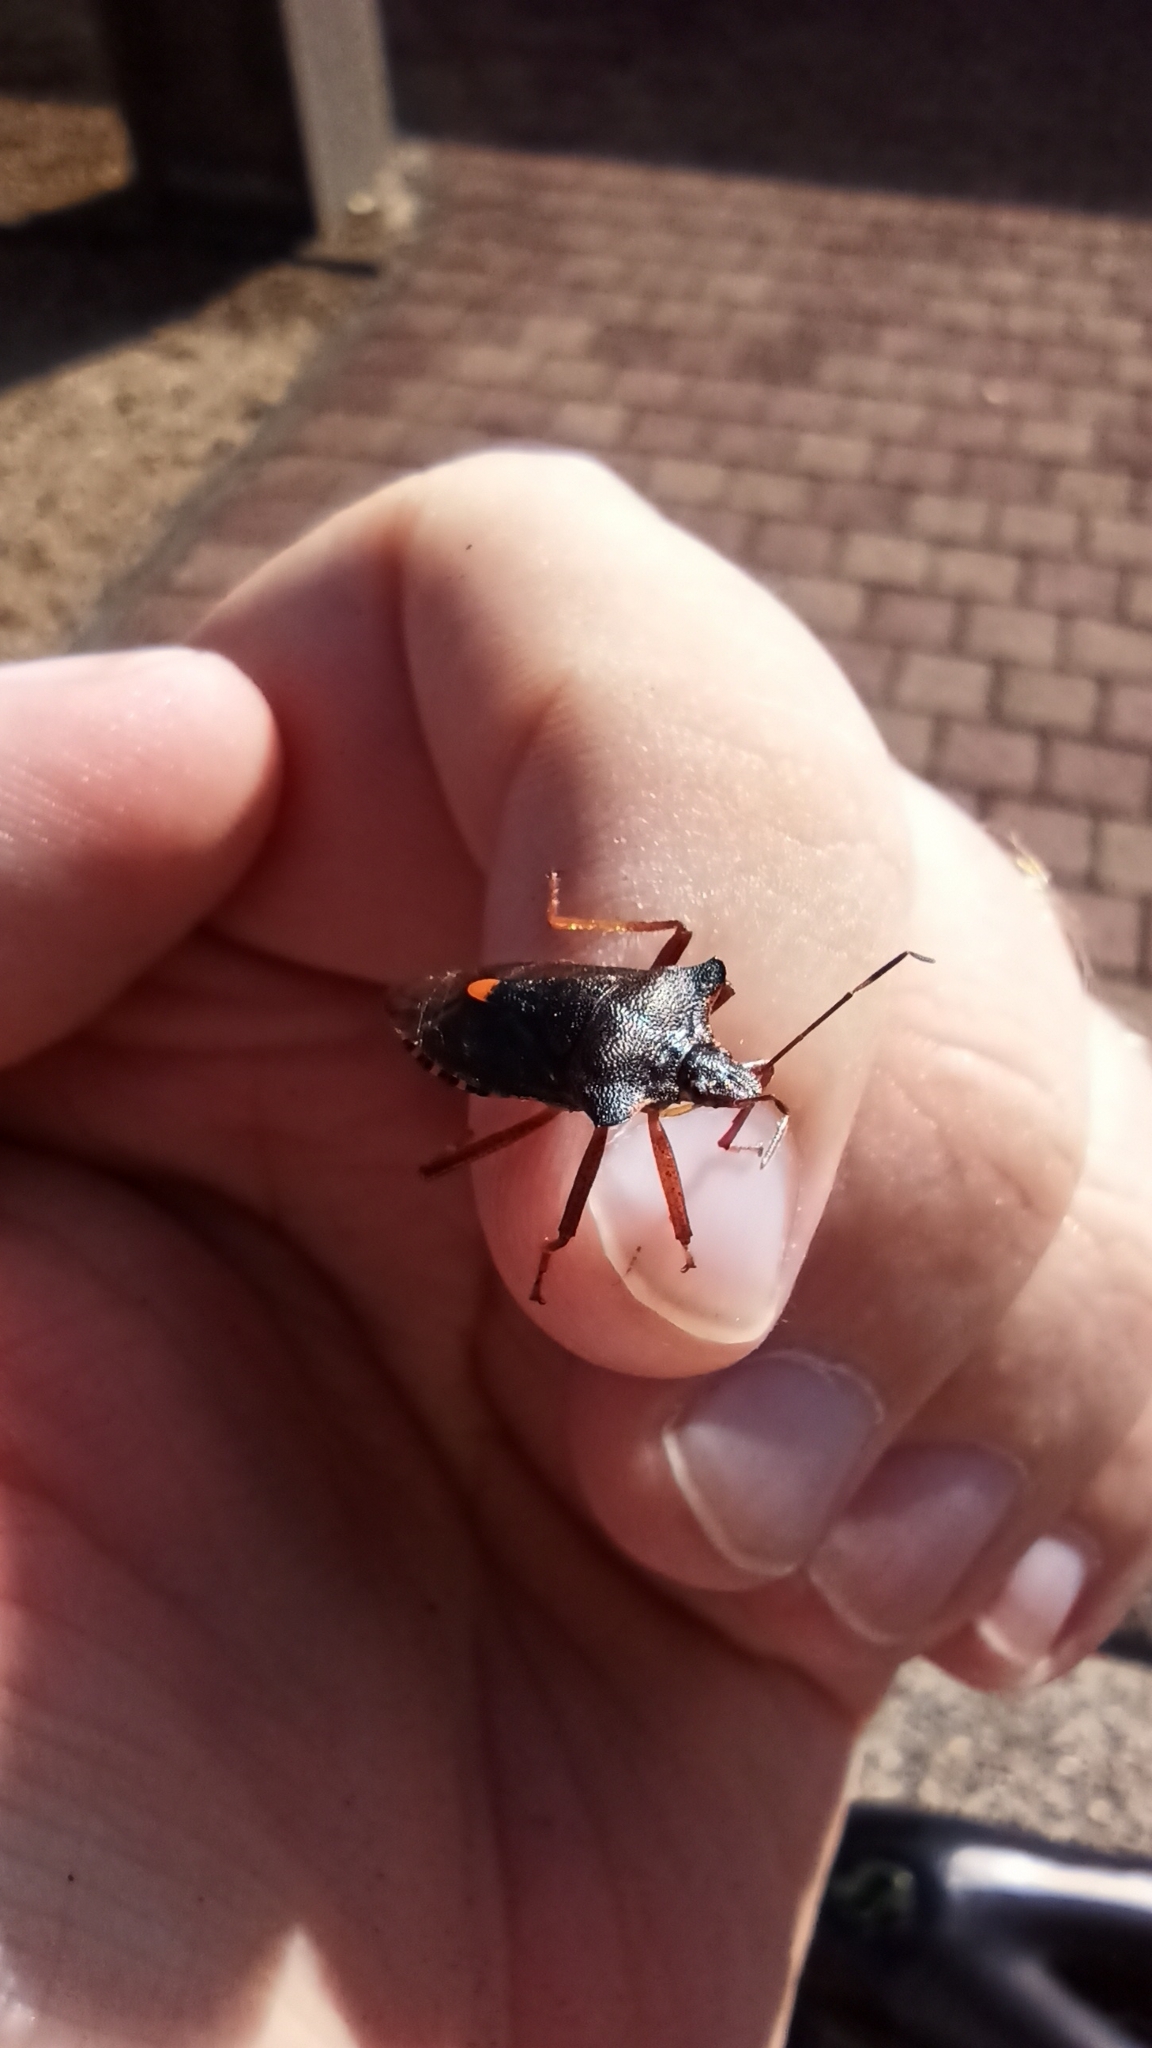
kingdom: Animalia
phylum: Arthropoda
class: Insecta
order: Hemiptera
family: Pentatomidae
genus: Pentatoma
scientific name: Pentatoma rufipes
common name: Forest bug
